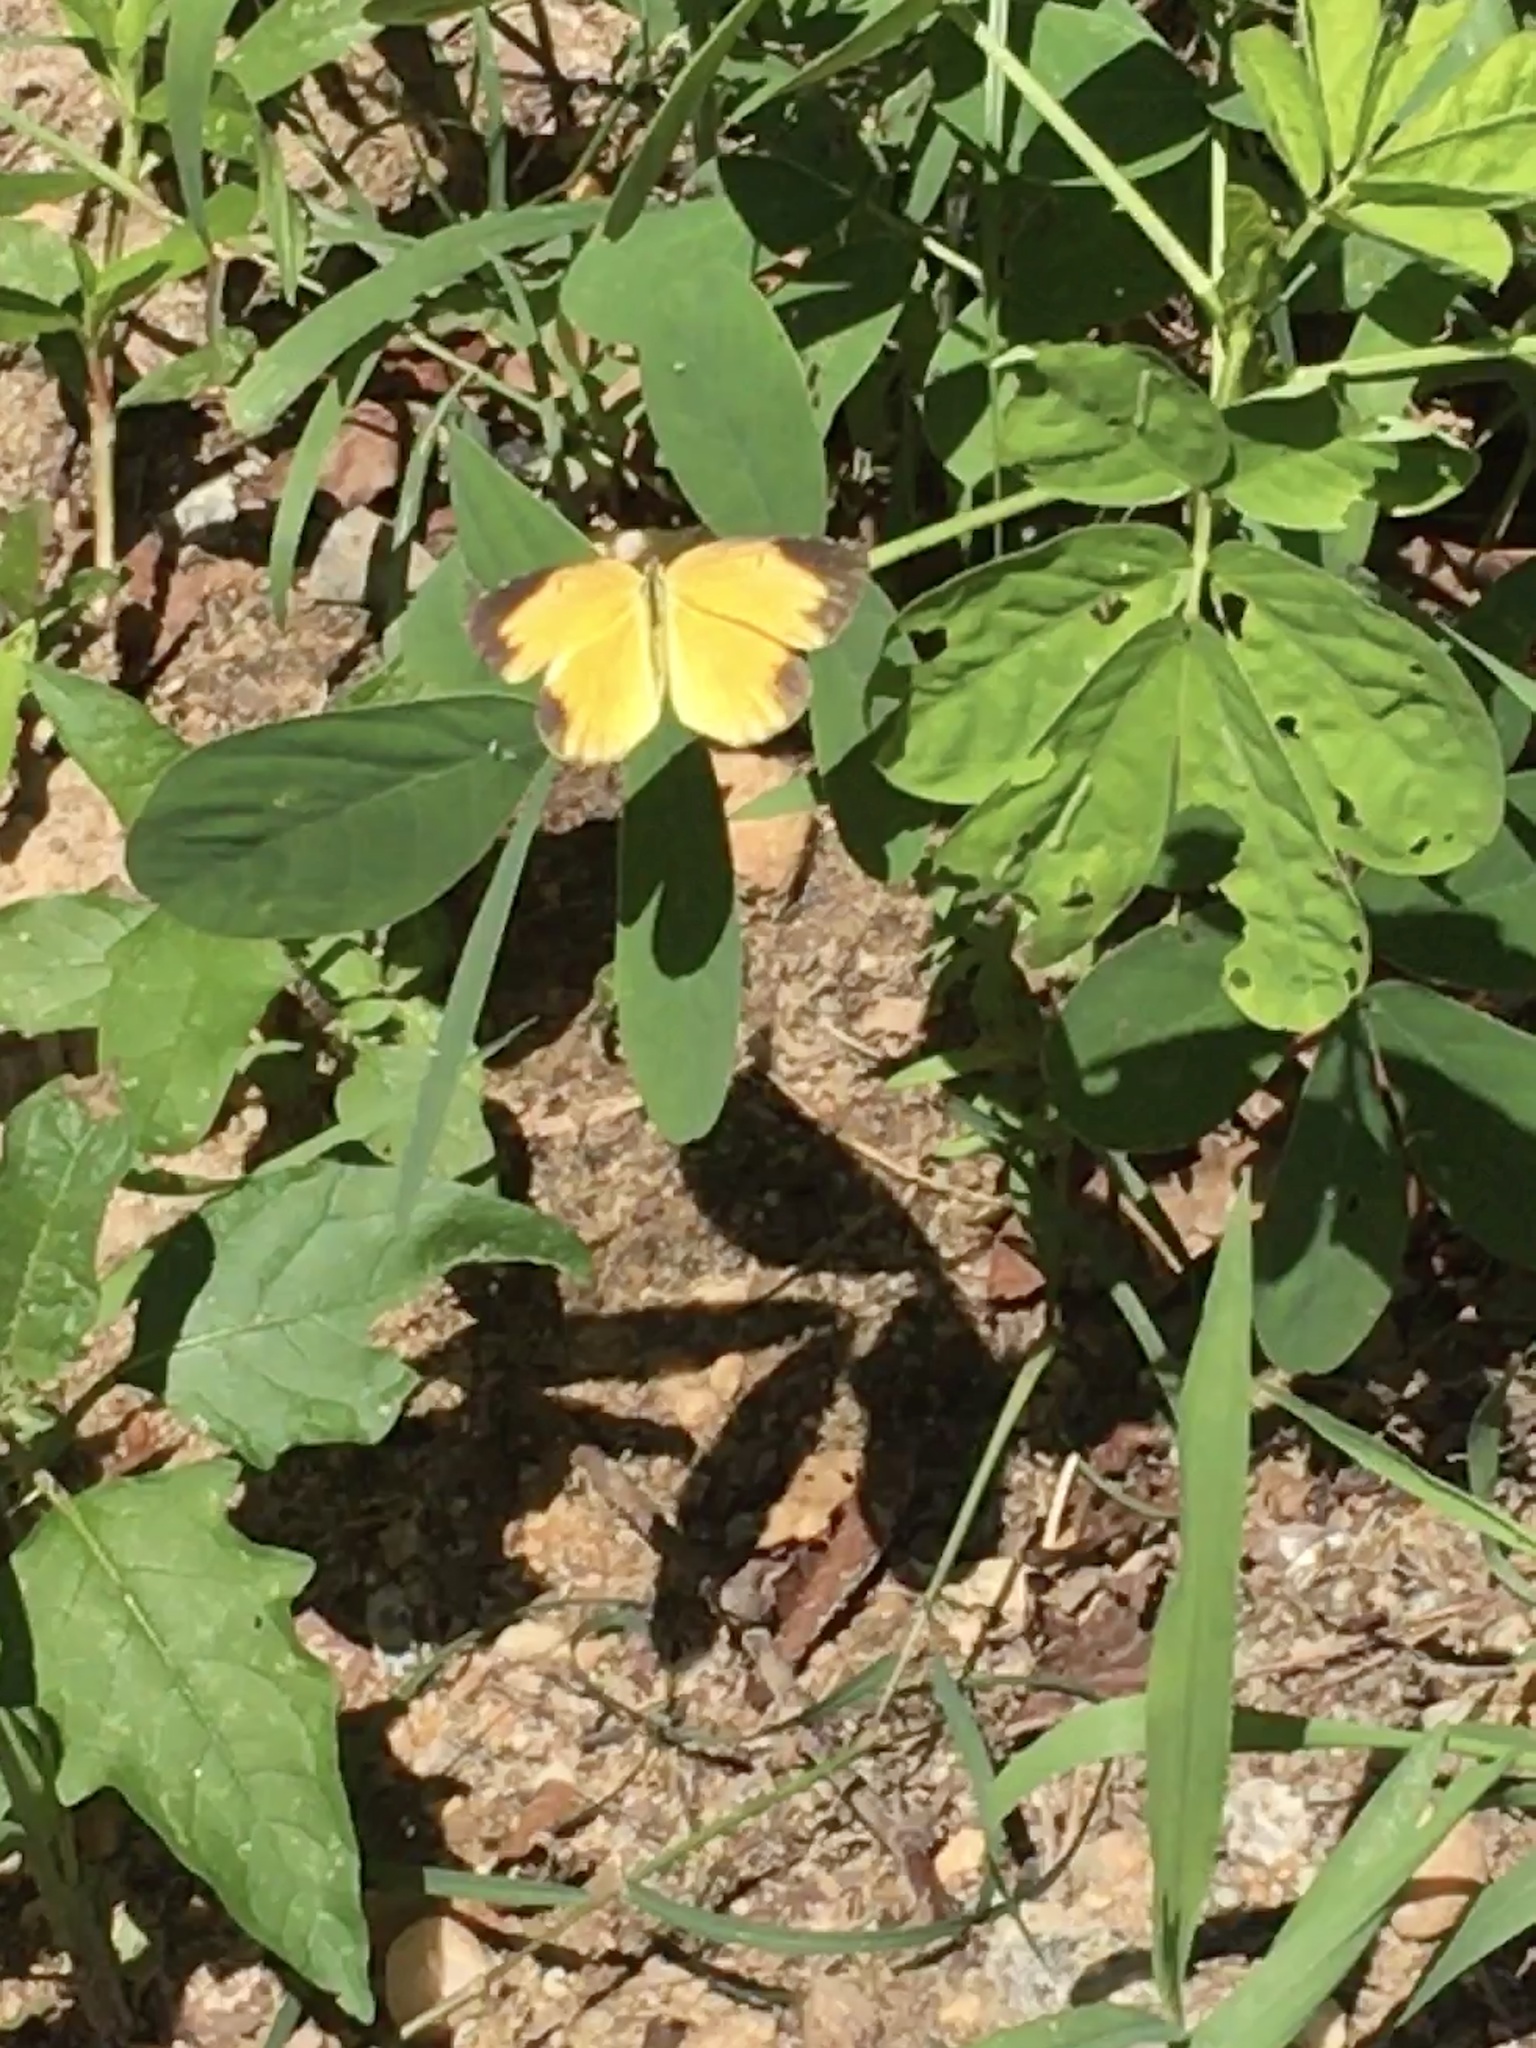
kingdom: Animalia
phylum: Arthropoda
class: Insecta
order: Lepidoptera
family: Pieridae
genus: Abaeis
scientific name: Abaeis nicippe
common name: Sleepy orange
